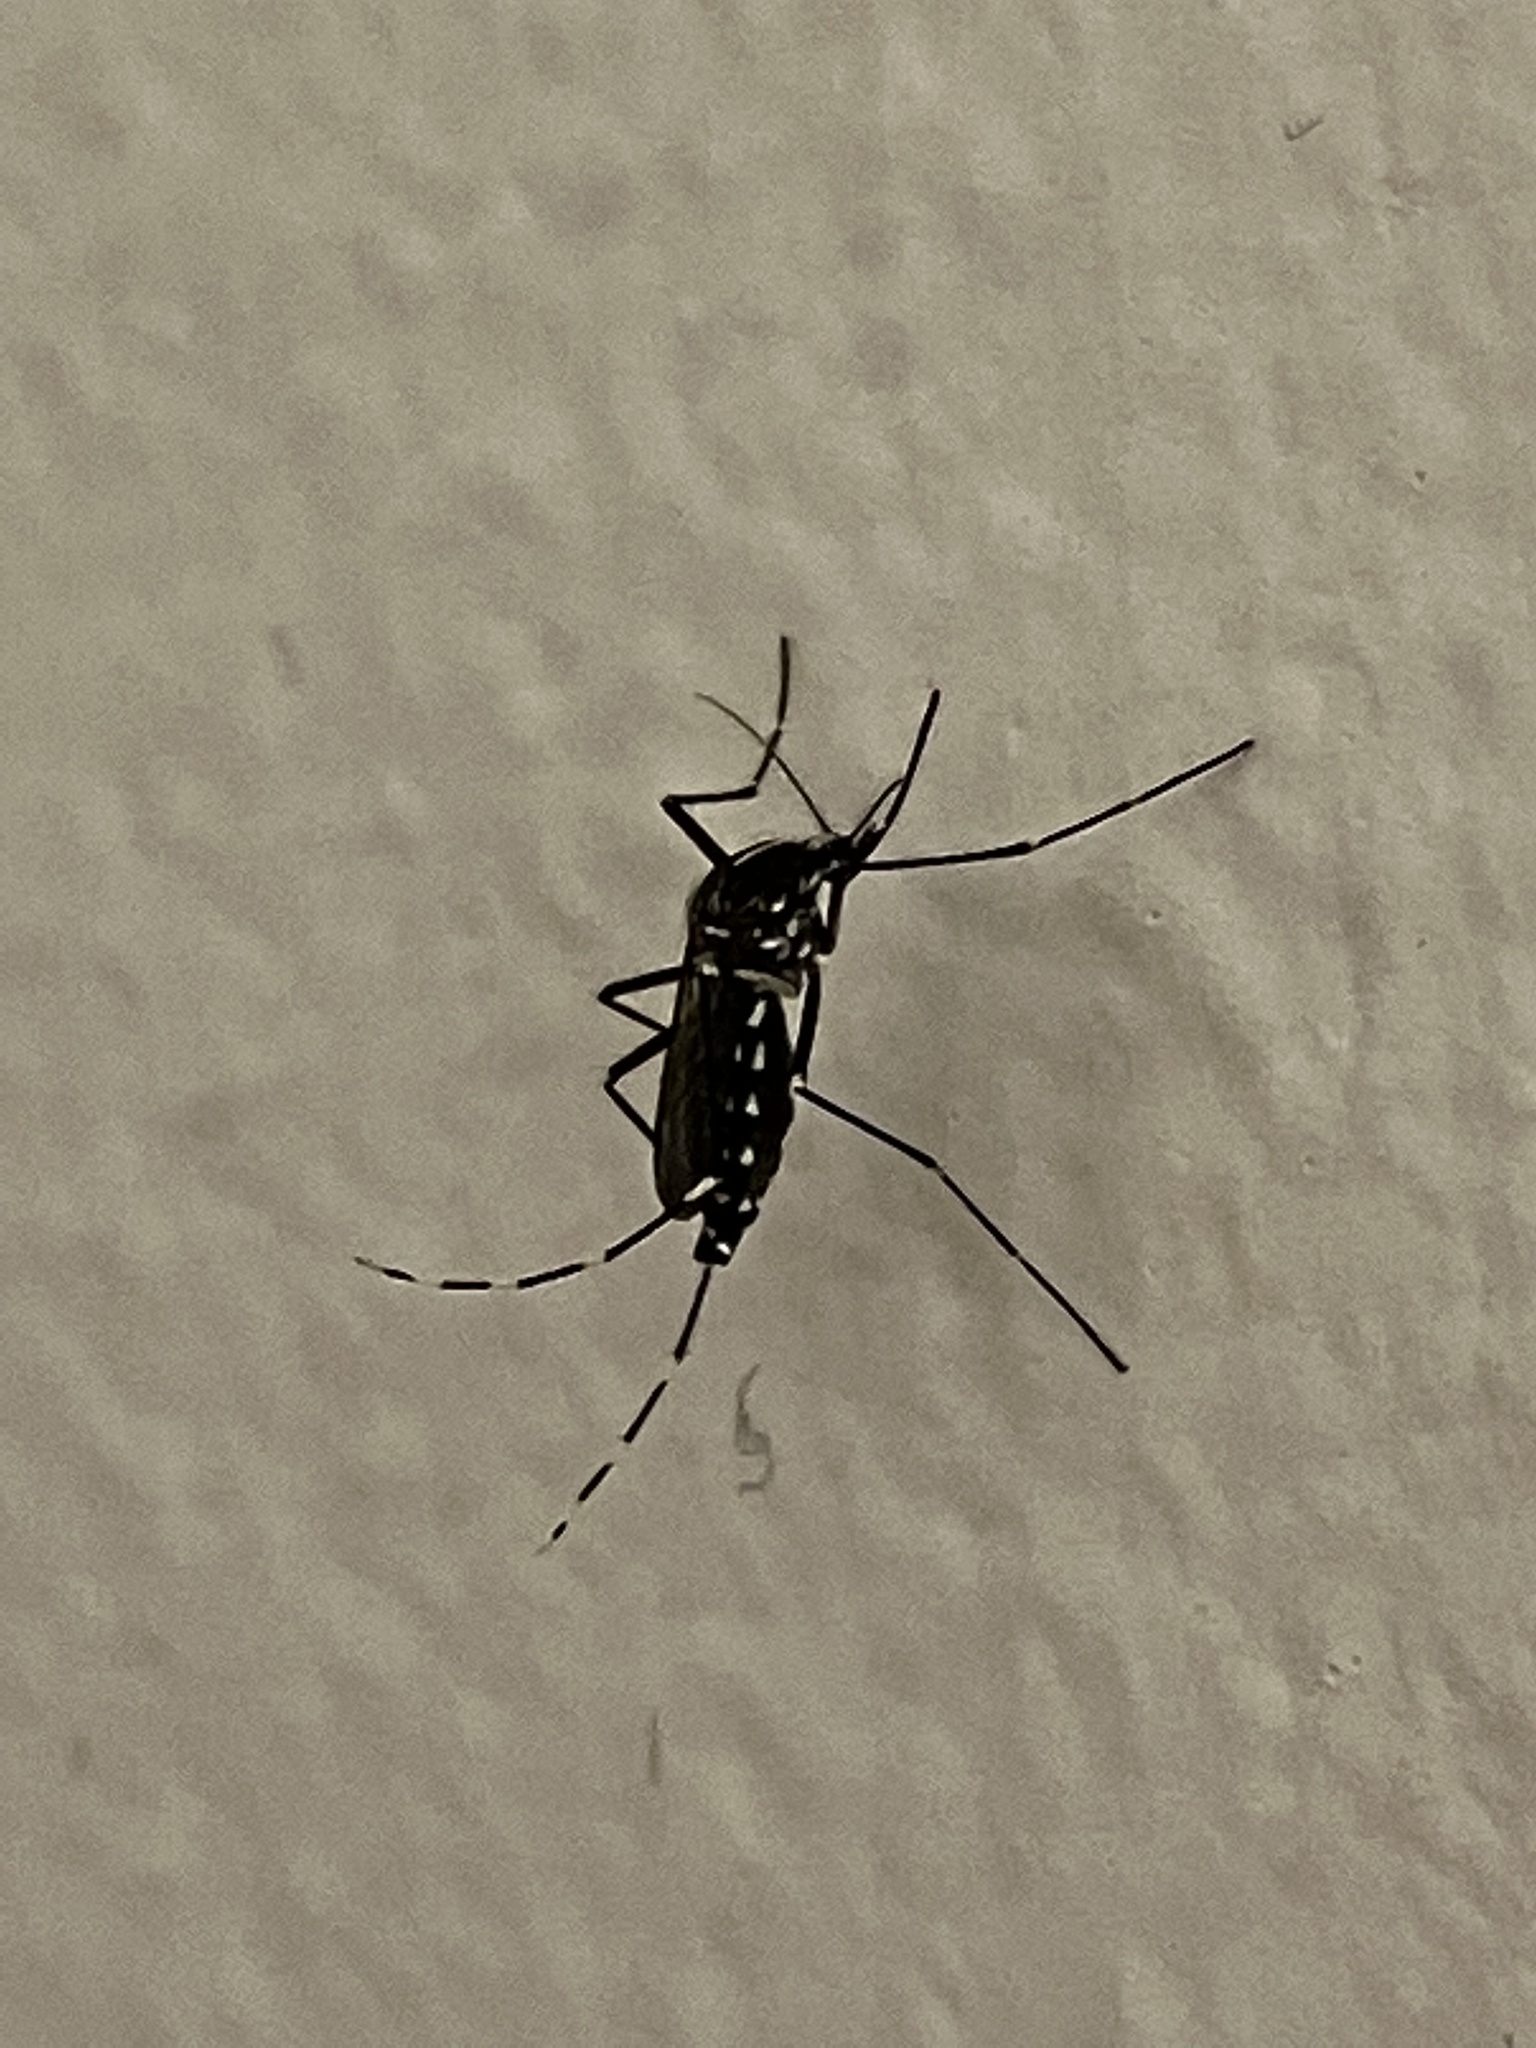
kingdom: Animalia
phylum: Arthropoda
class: Insecta
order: Diptera
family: Culicidae
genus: Aedes
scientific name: Aedes albopictus
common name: Tiger mosquito
